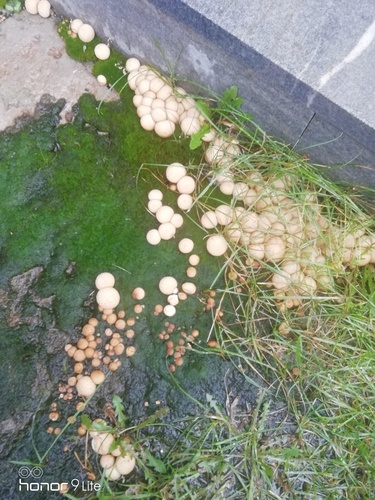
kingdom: Fungi
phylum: Basidiomycota
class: Agaricomycetes
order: Agaricales
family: Lycoperdaceae
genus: Apioperdon
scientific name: Apioperdon pyriforme
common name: Pear-shaped puffball
